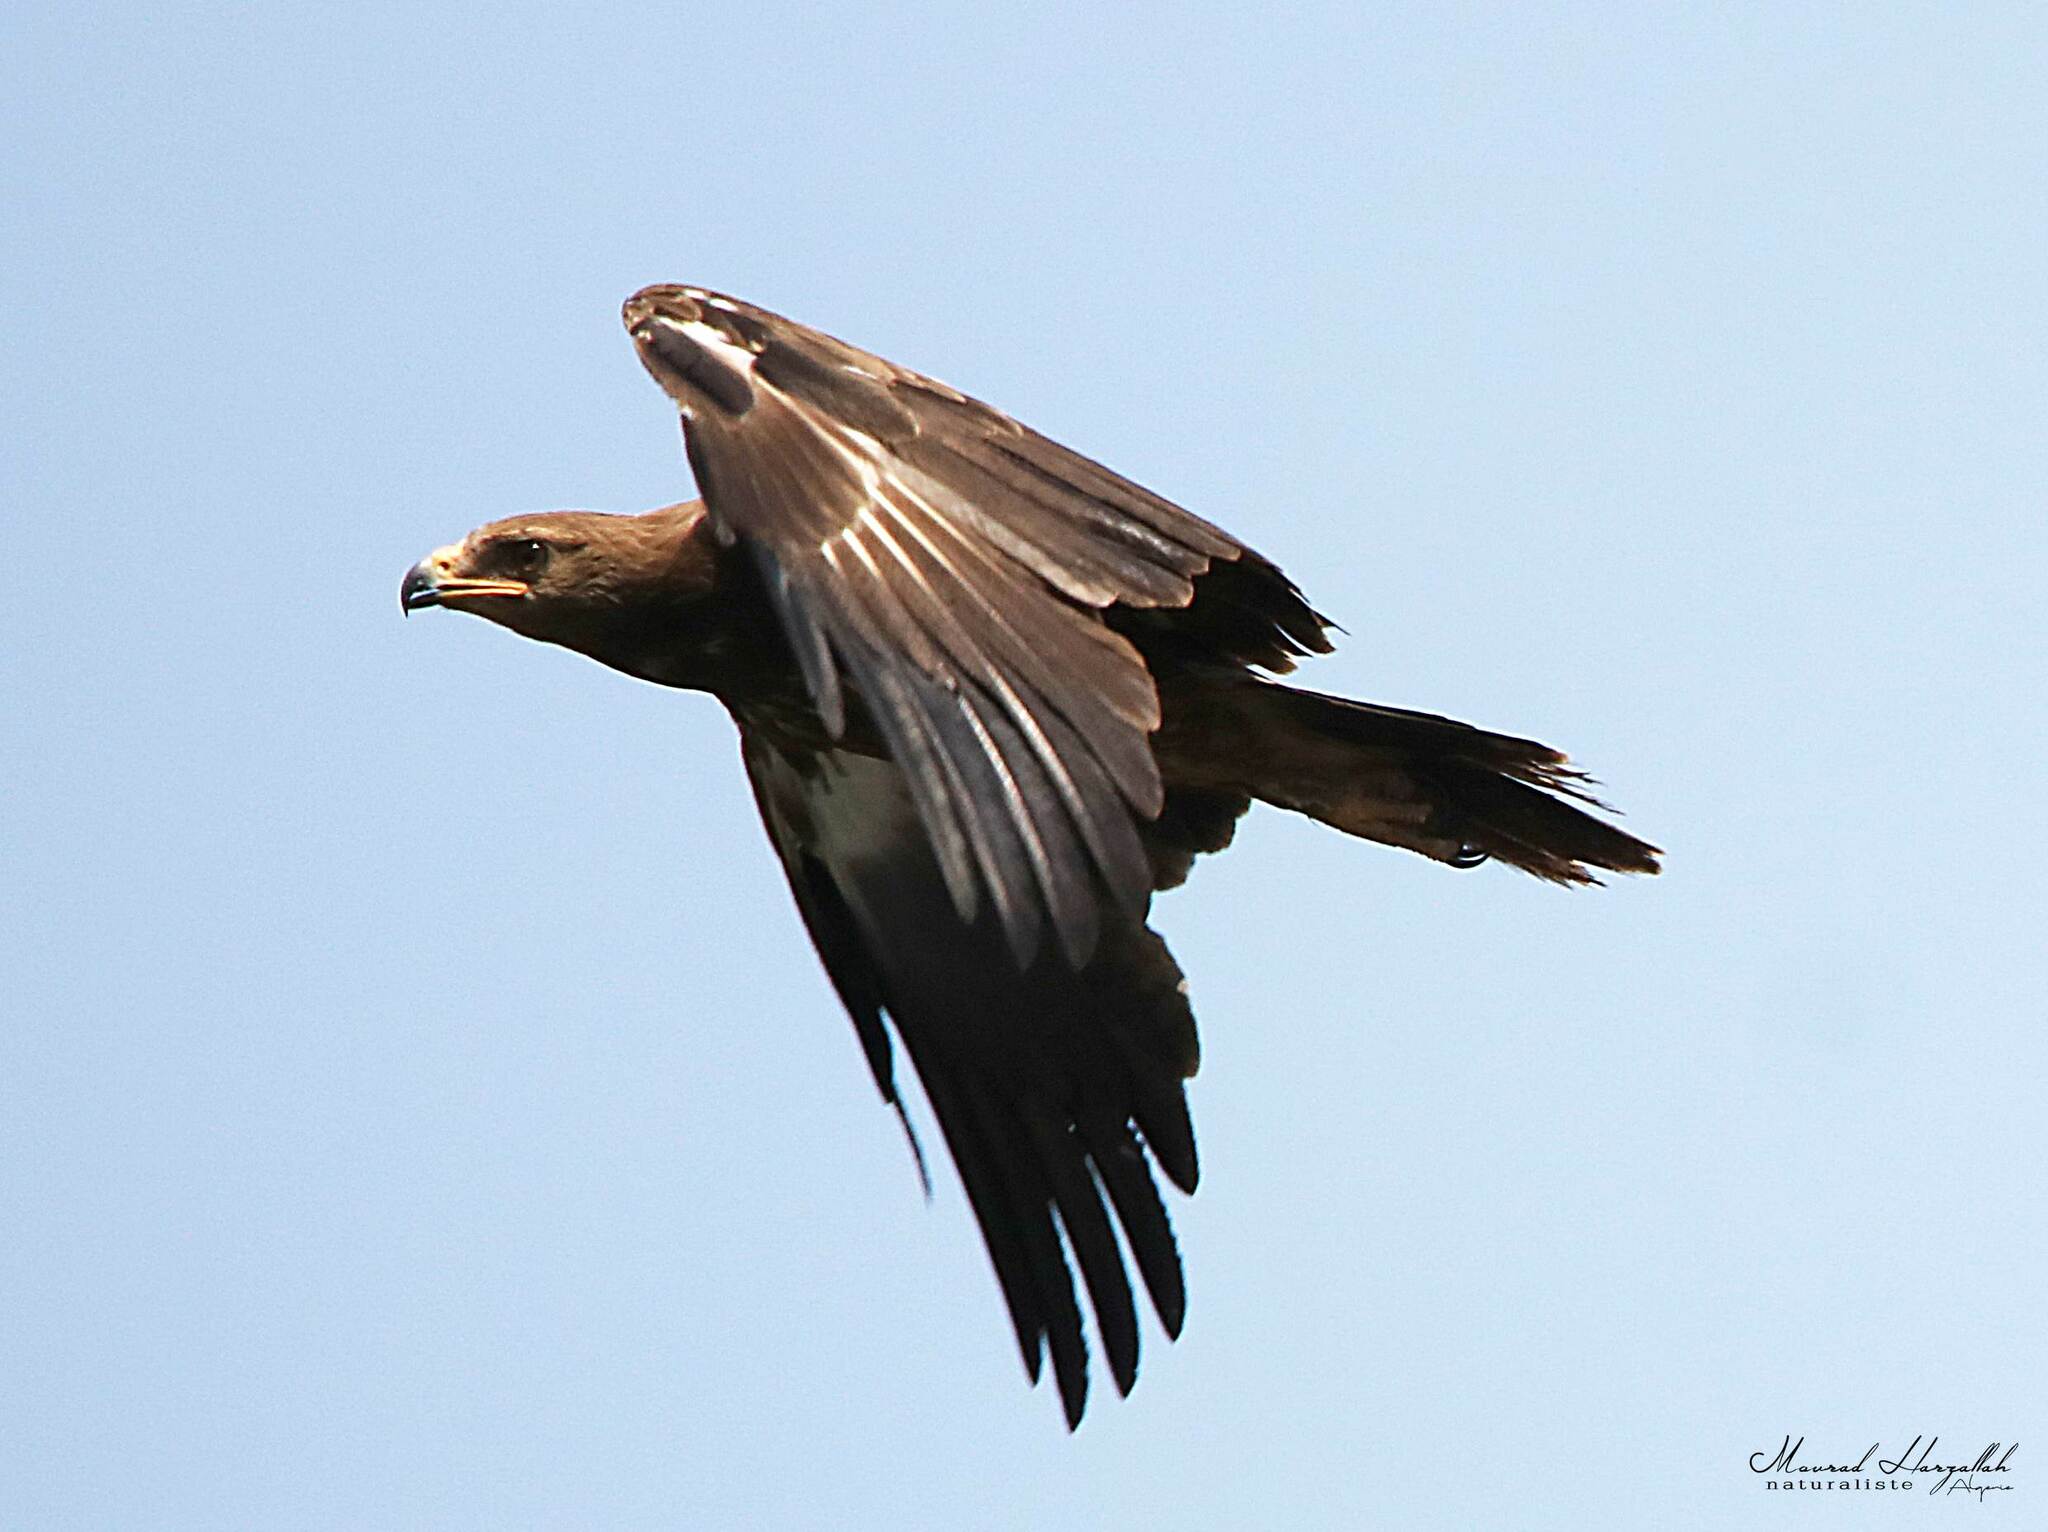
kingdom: Animalia
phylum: Chordata
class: Aves
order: Accipitriformes
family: Accipitridae
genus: Aquila
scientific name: Aquila pomarina
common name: Lesser spotted eagle
